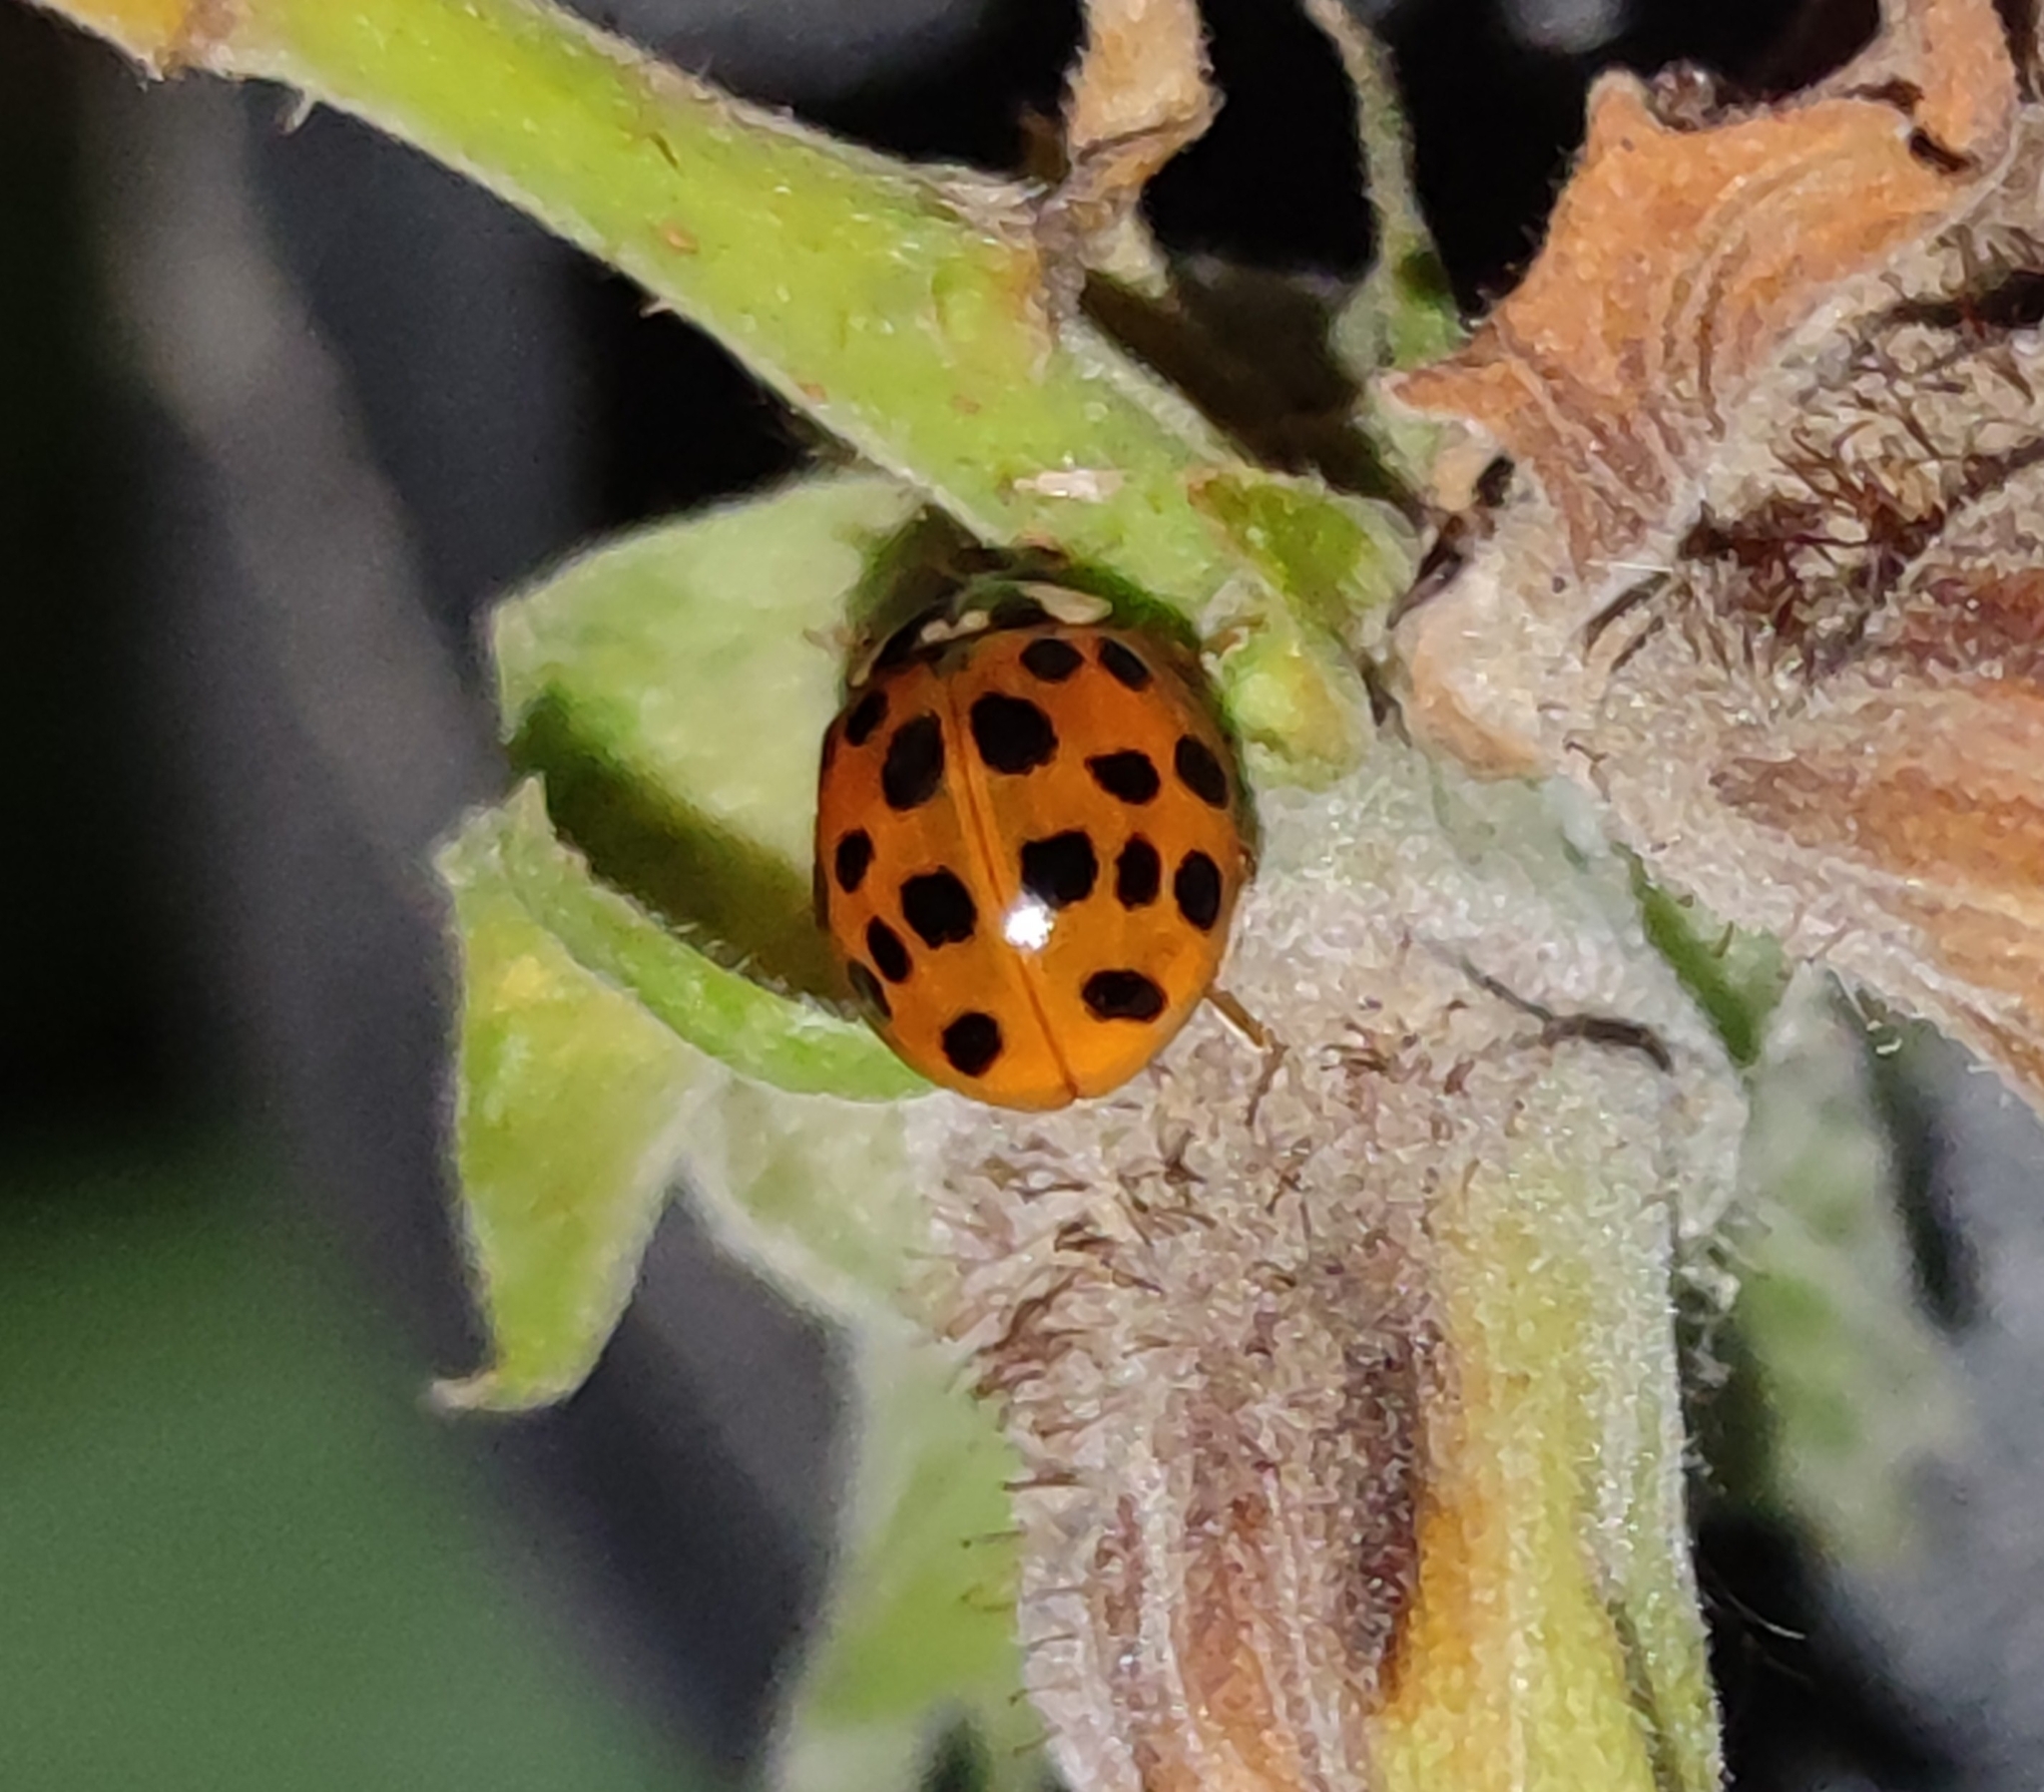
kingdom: Animalia
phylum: Arthropoda
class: Insecta
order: Coleoptera
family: Coccinellidae
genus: Harmonia
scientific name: Harmonia axyridis
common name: Harlequin ladybird
